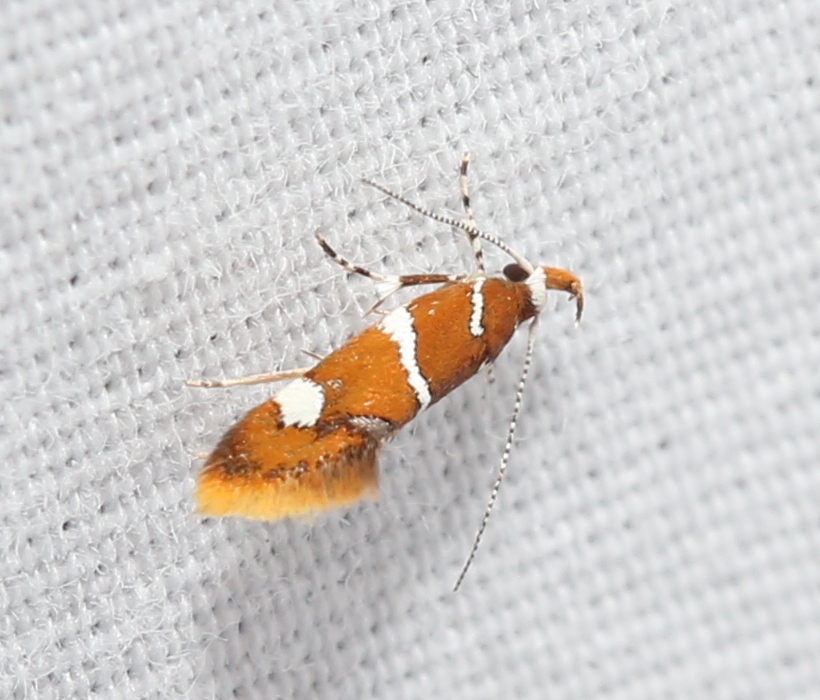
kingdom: Animalia
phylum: Arthropoda
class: Insecta
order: Lepidoptera
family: Oecophoridae
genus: Promalactis
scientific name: Promalactis suzukiella
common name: Moth
